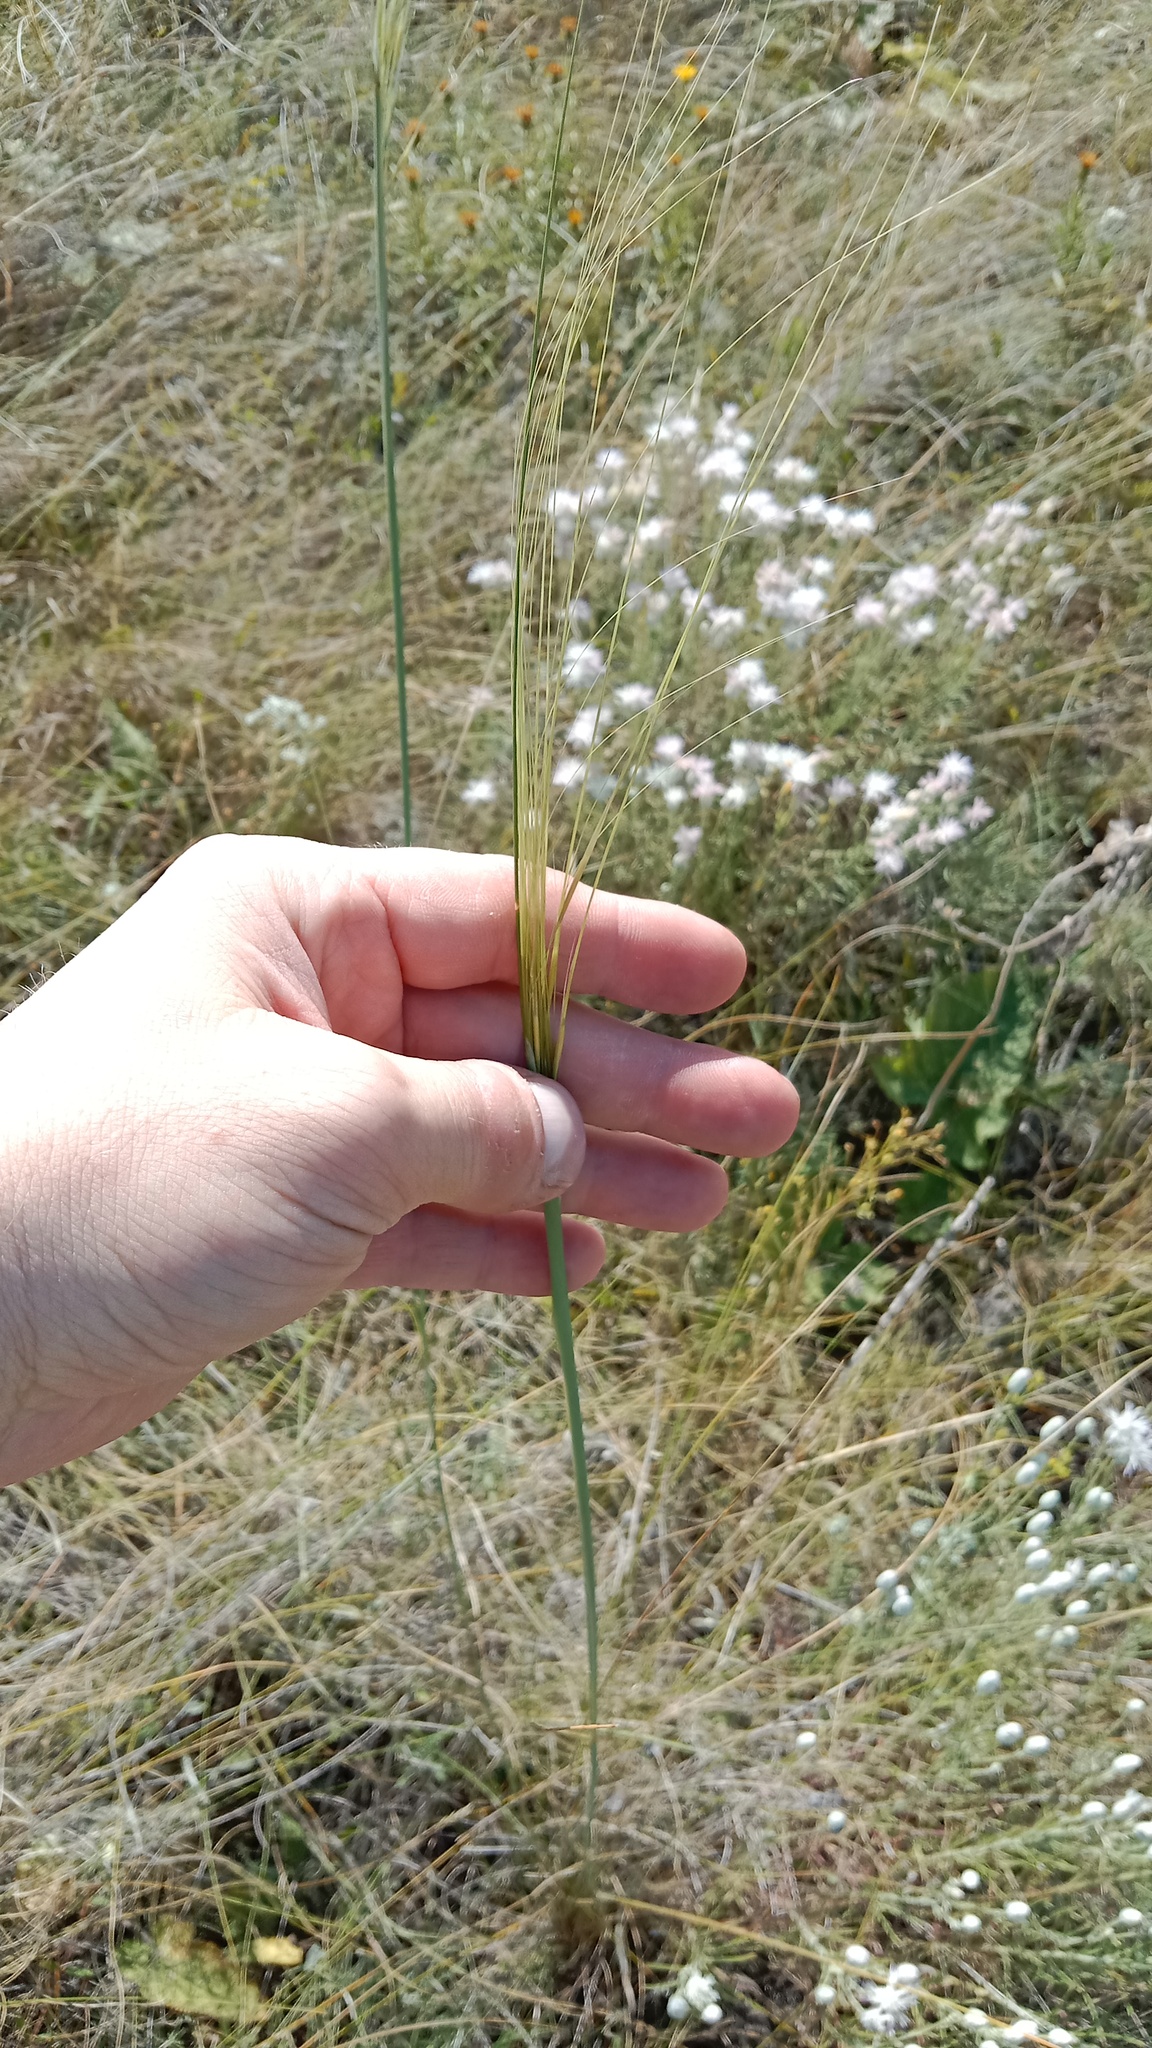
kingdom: Plantae
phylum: Tracheophyta
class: Liliopsida
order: Poales
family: Poaceae
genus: Stipa
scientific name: Stipa capillata
